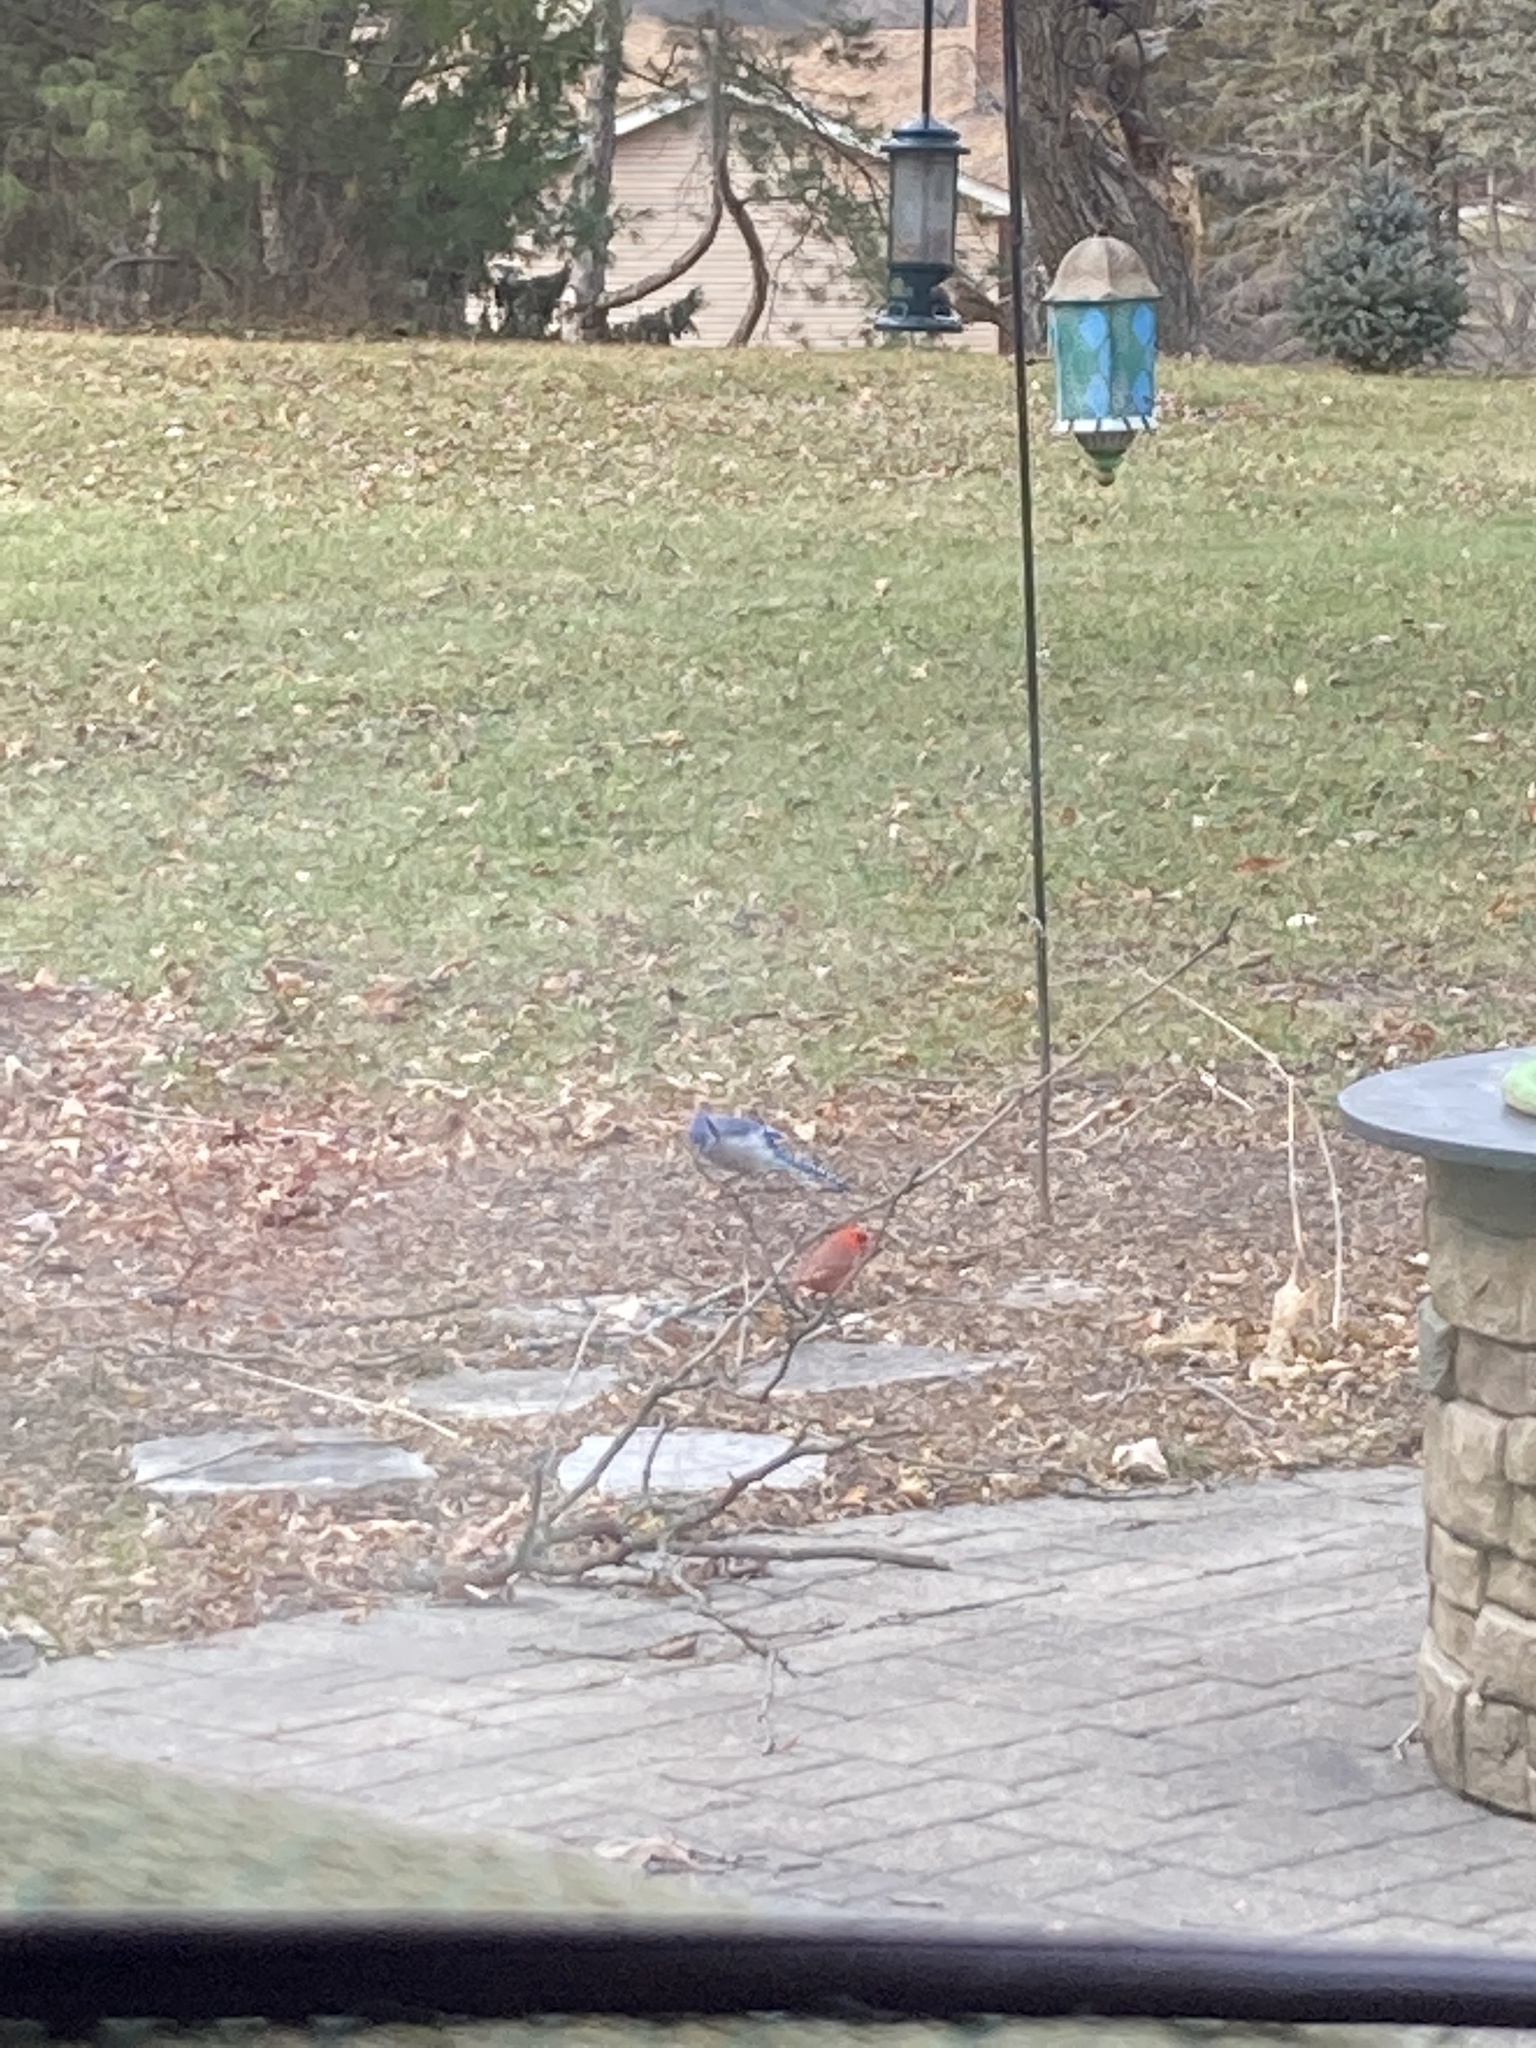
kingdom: Animalia
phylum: Chordata
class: Aves
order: Passeriformes
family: Corvidae
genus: Cyanocitta
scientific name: Cyanocitta cristata
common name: Blue jay
